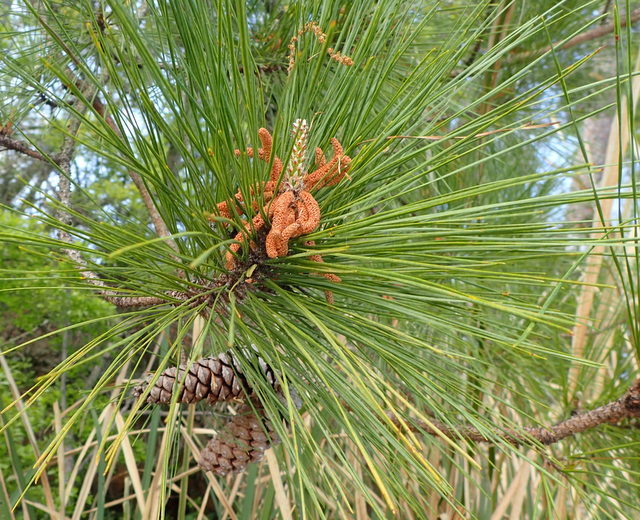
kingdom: Plantae
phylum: Tracheophyta
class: Pinopsida
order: Pinales
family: Pinaceae
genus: Pinus
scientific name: Pinus taeda
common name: Loblolly pine
